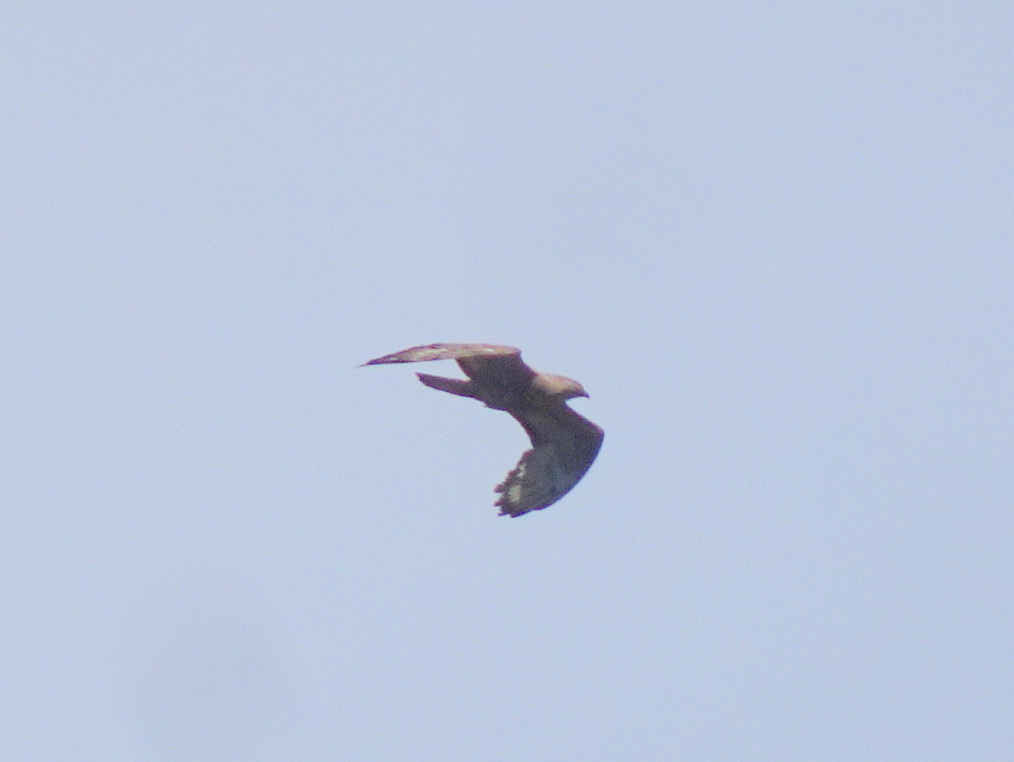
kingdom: Animalia
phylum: Chordata
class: Aves
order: Accipitriformes
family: Accipitridae
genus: Pernis
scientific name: Pernis apivorus
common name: European honey buzzard
